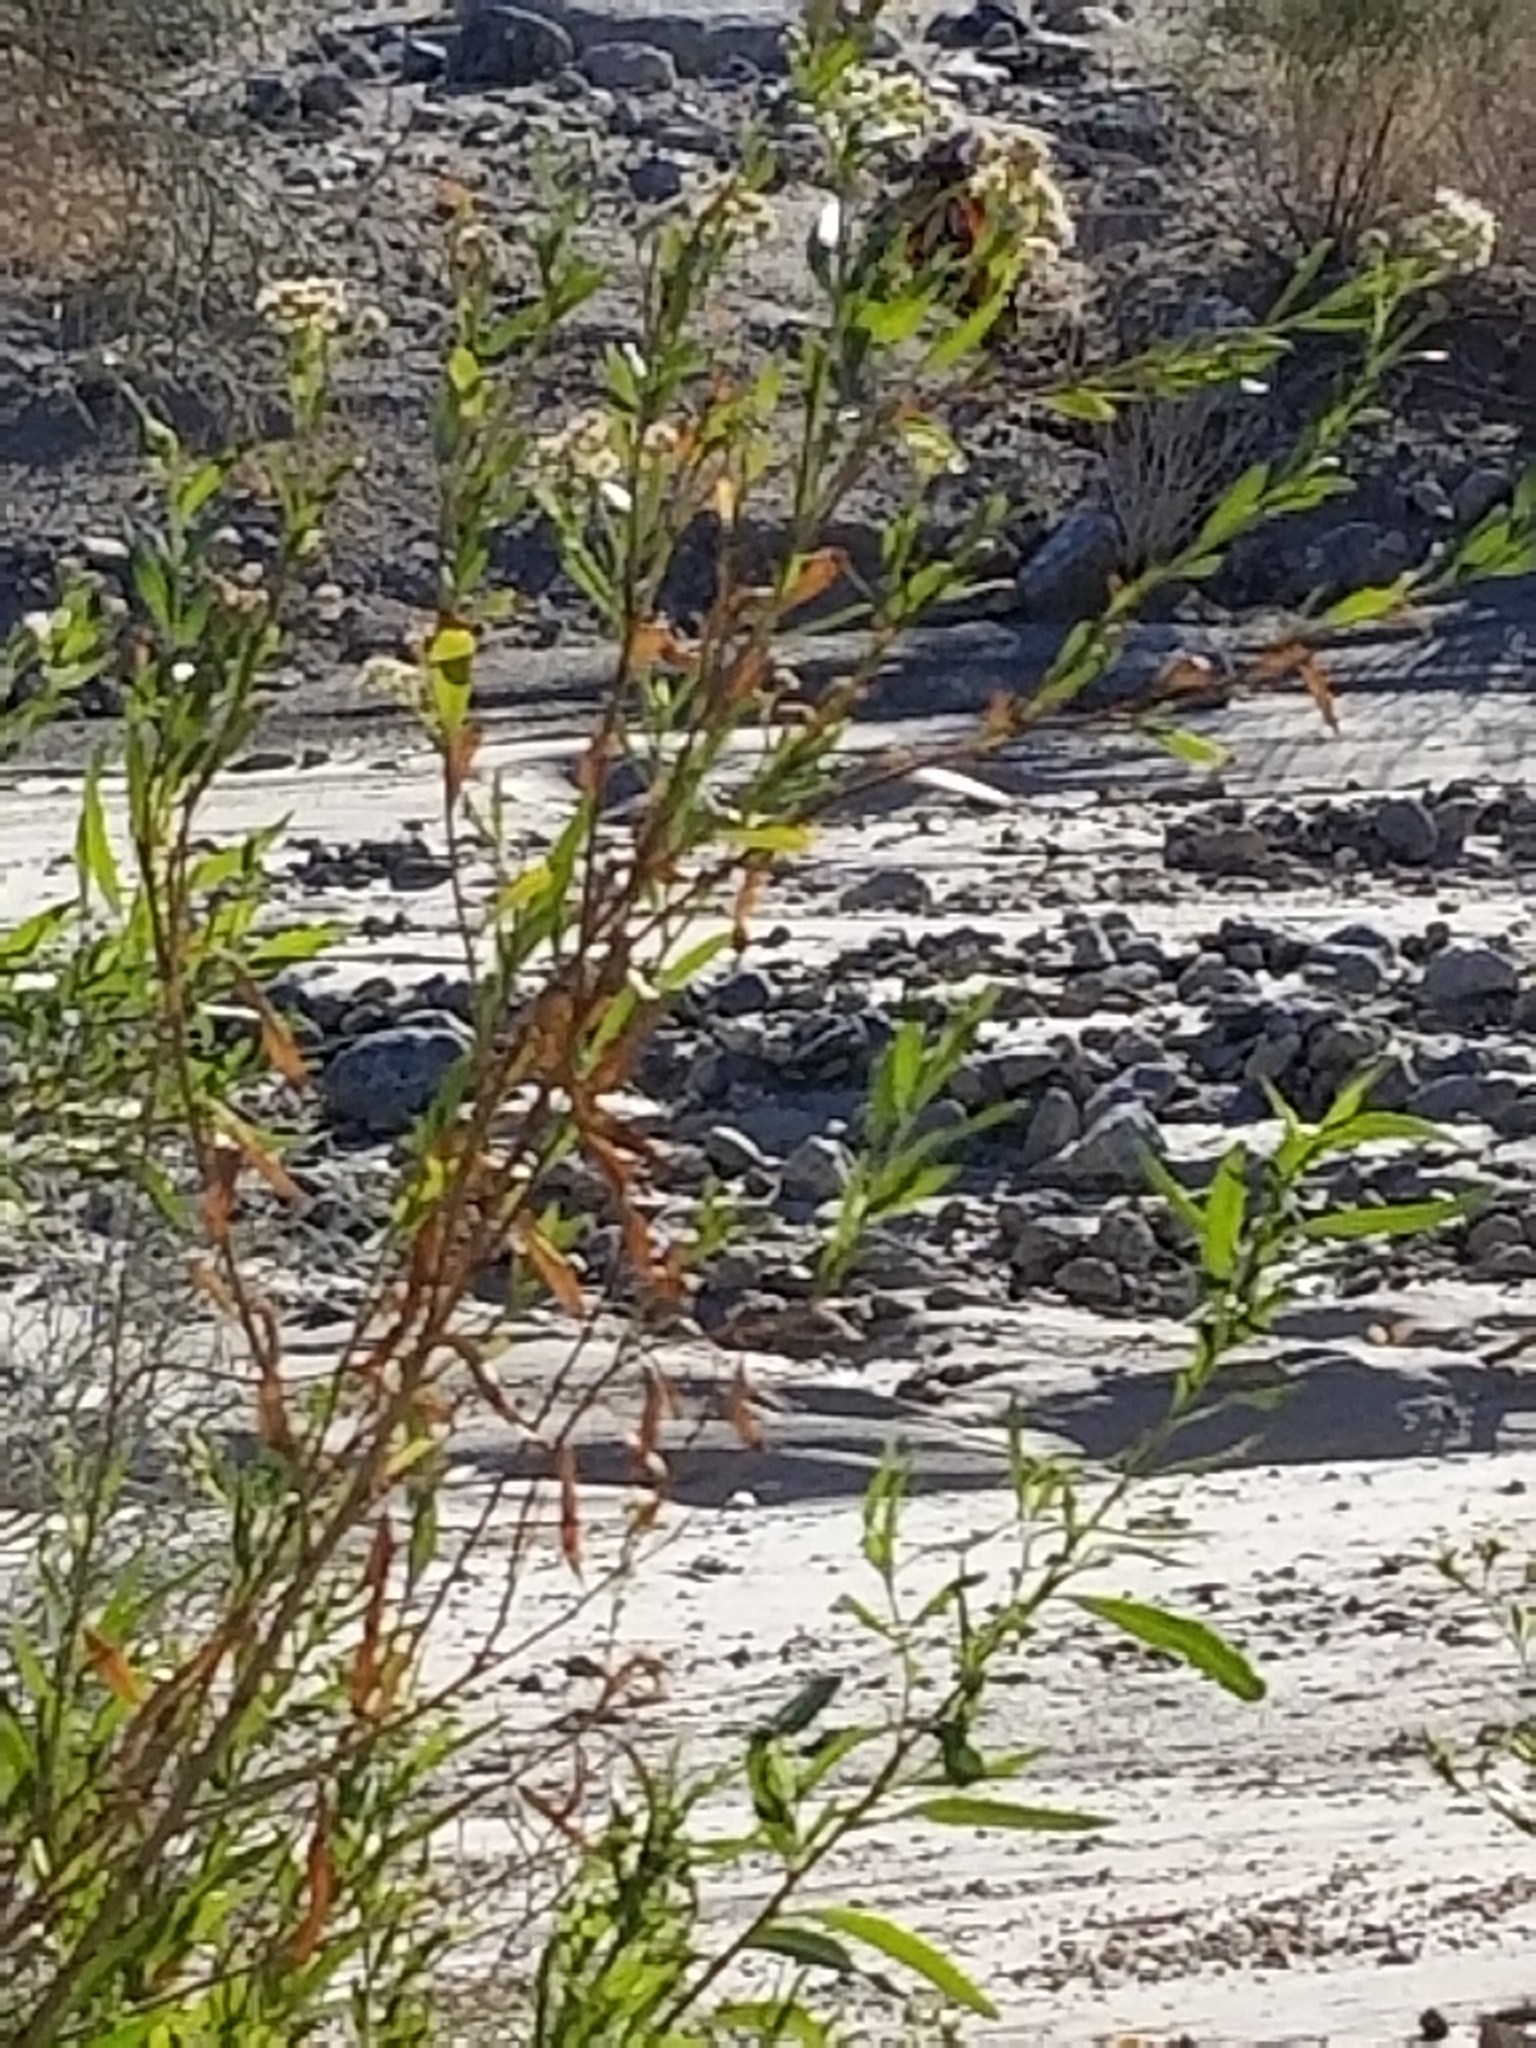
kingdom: Animalia
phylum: Arthropoda
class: Insecta
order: Lepidoptera
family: Nymphalidae
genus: Danaus
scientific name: Danaus gilippus
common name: Queen
